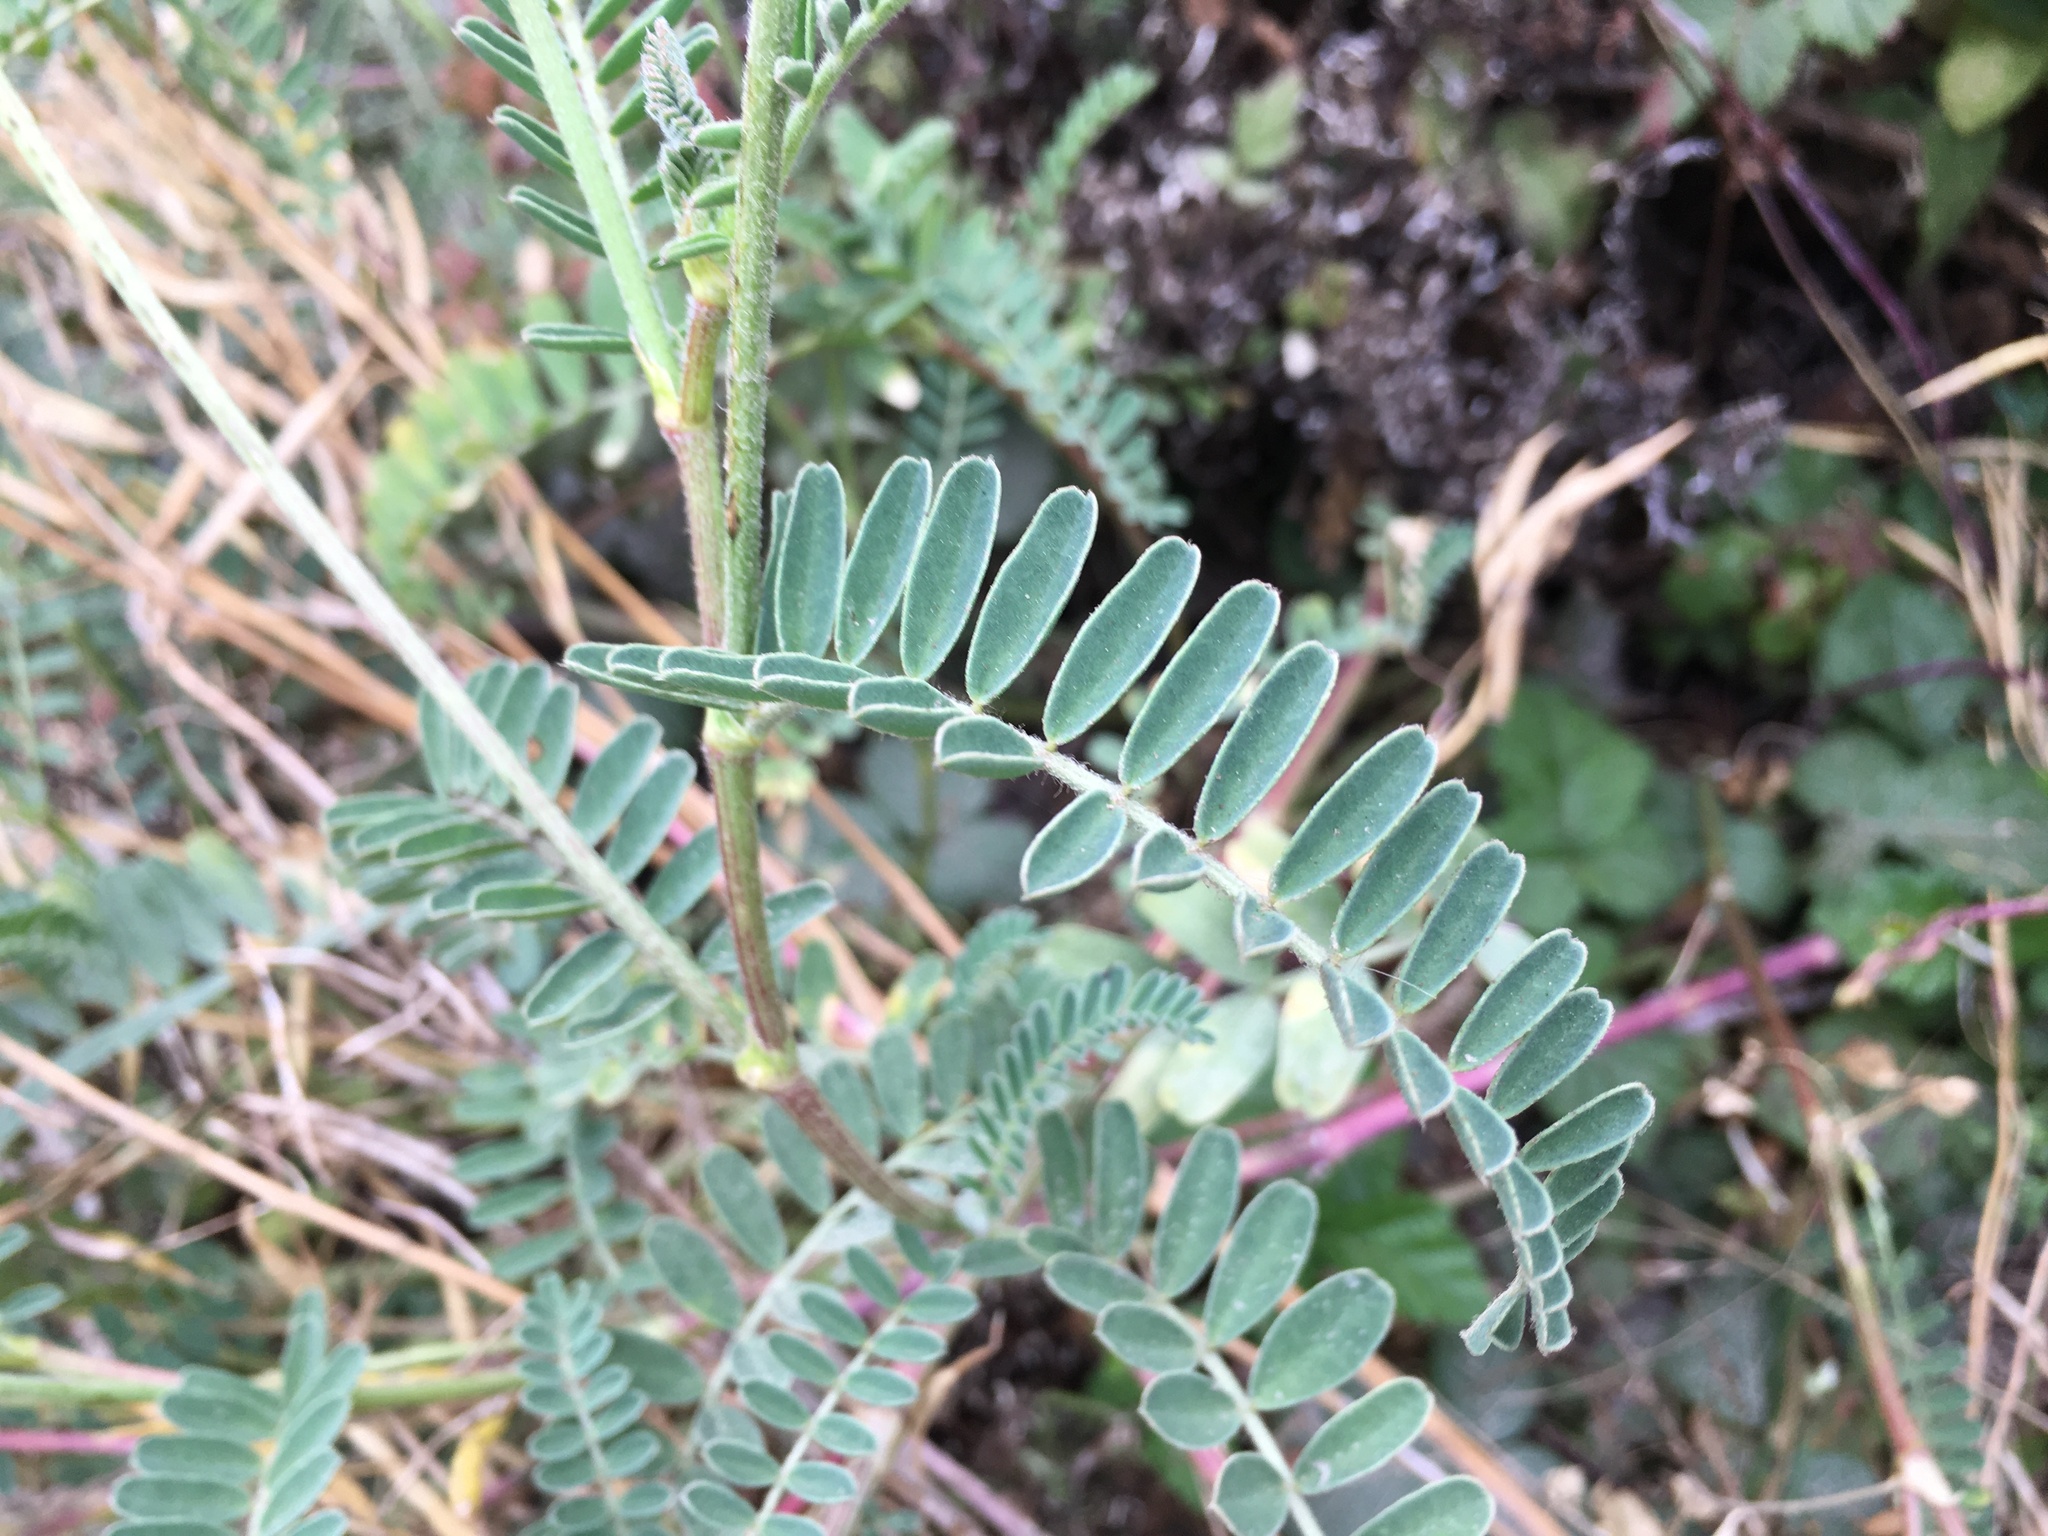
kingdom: Plantae
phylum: Tracheophyta
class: Magnoliopsida
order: Fabales
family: Fabaceae
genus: Astragalus
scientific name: Astragalus nuttallii
